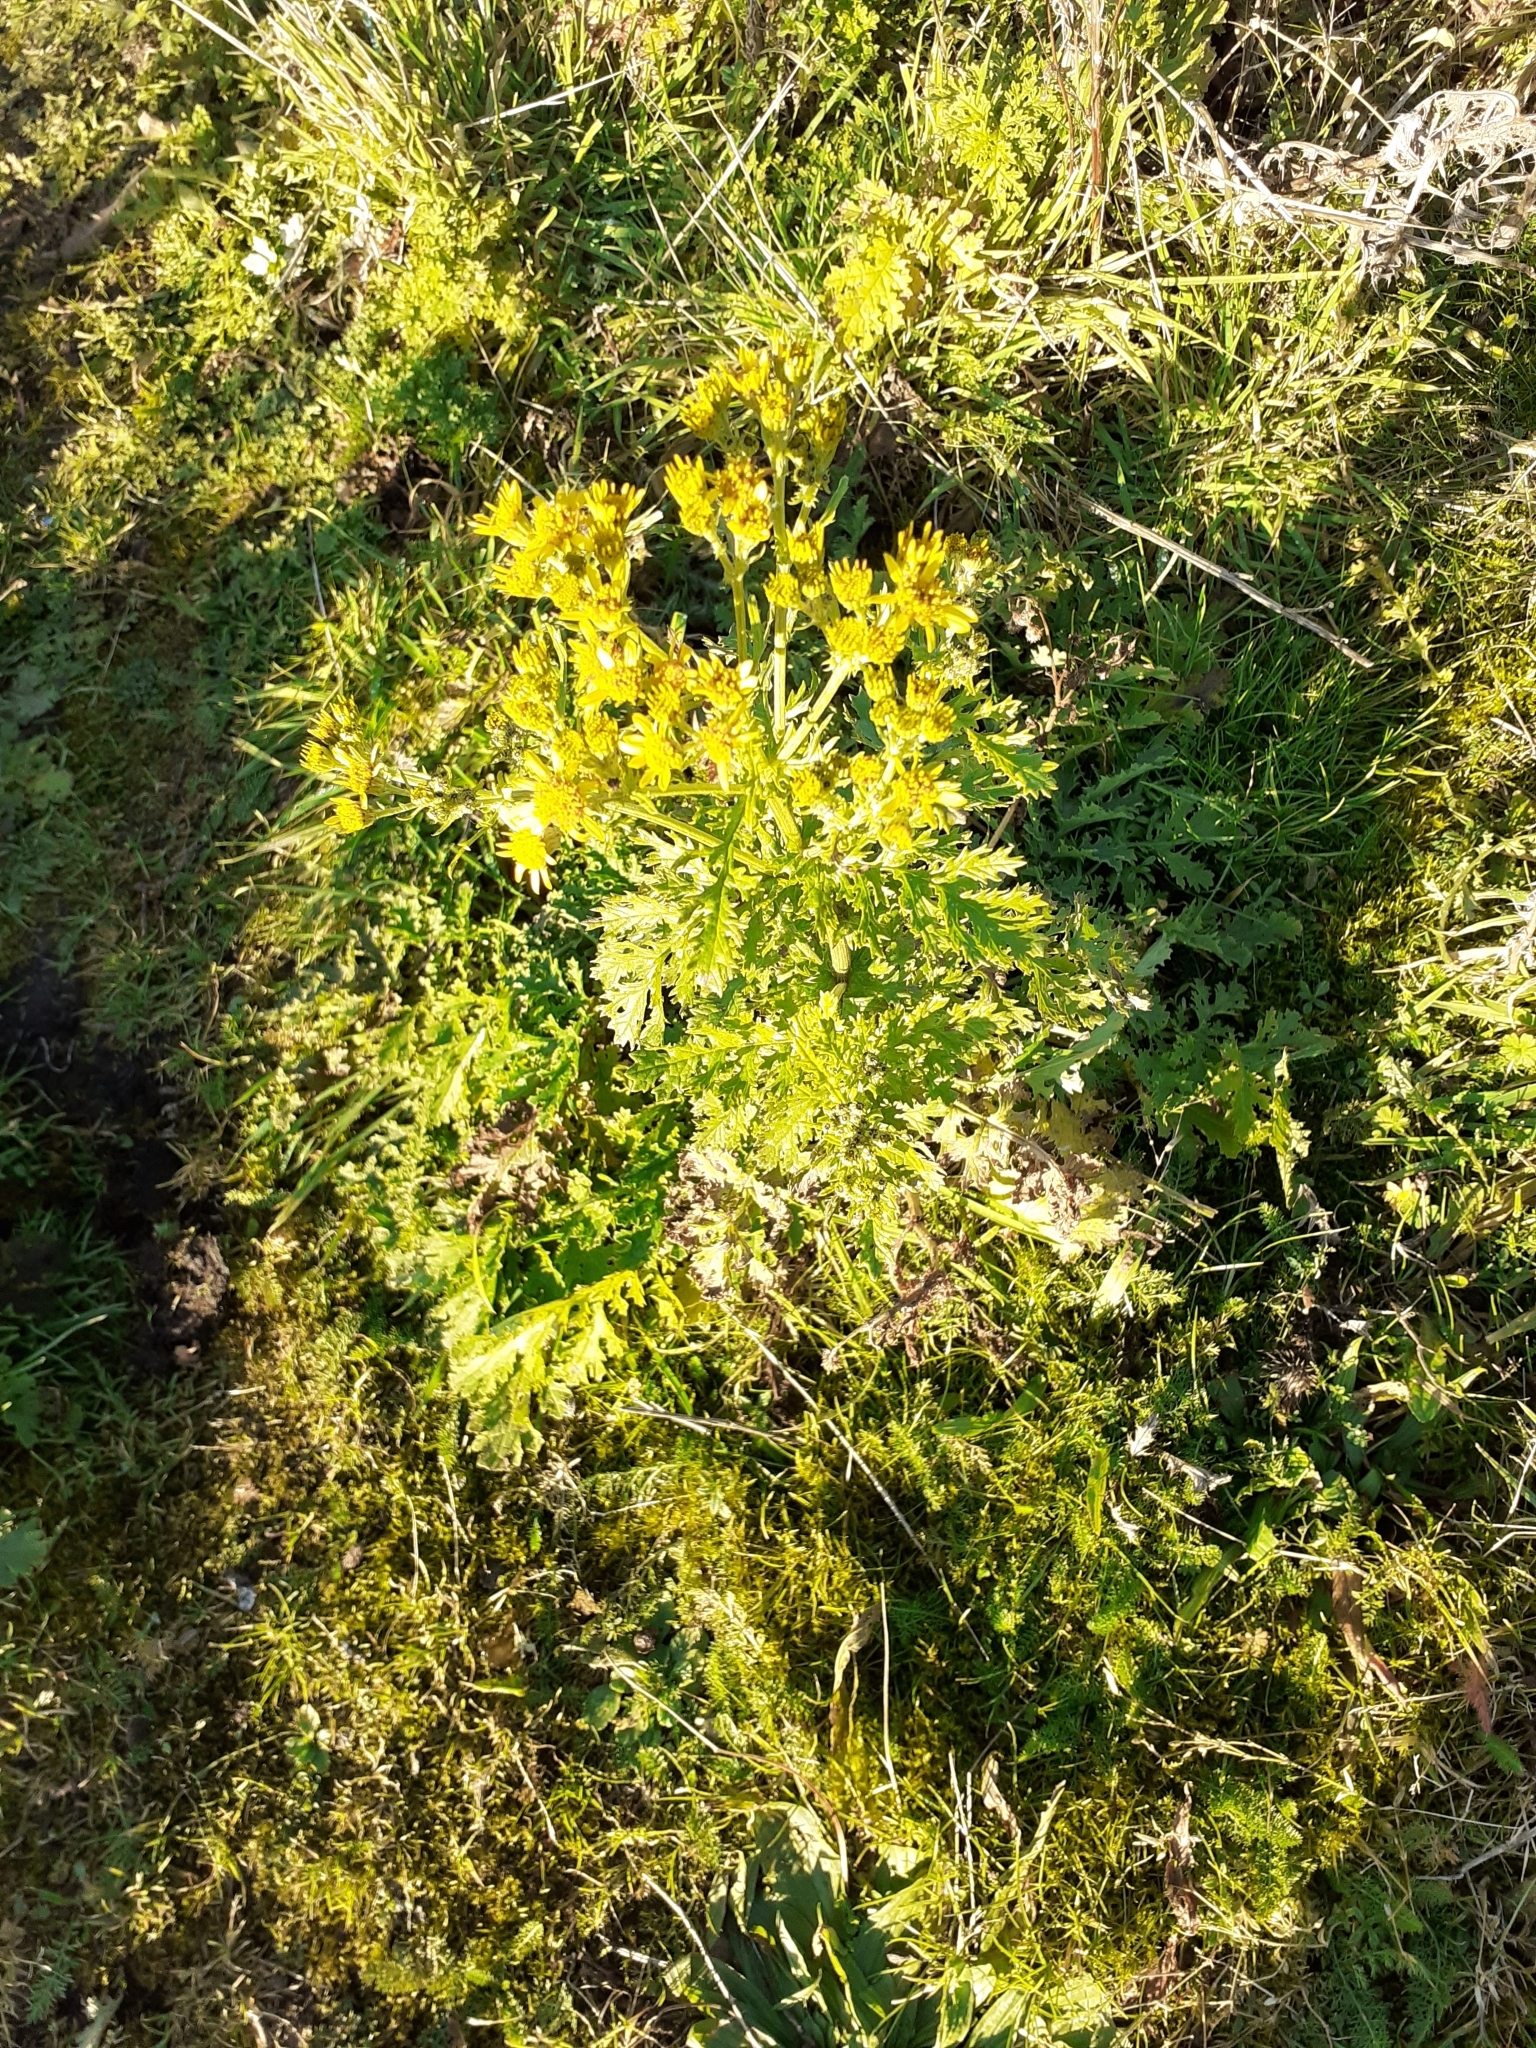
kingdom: Plantae
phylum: Tracheophyta
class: Magnoliopsida
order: Asterales
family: Asteraceae
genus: Jacobaea
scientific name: Jacobaea vulgaris
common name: Stinking willie
